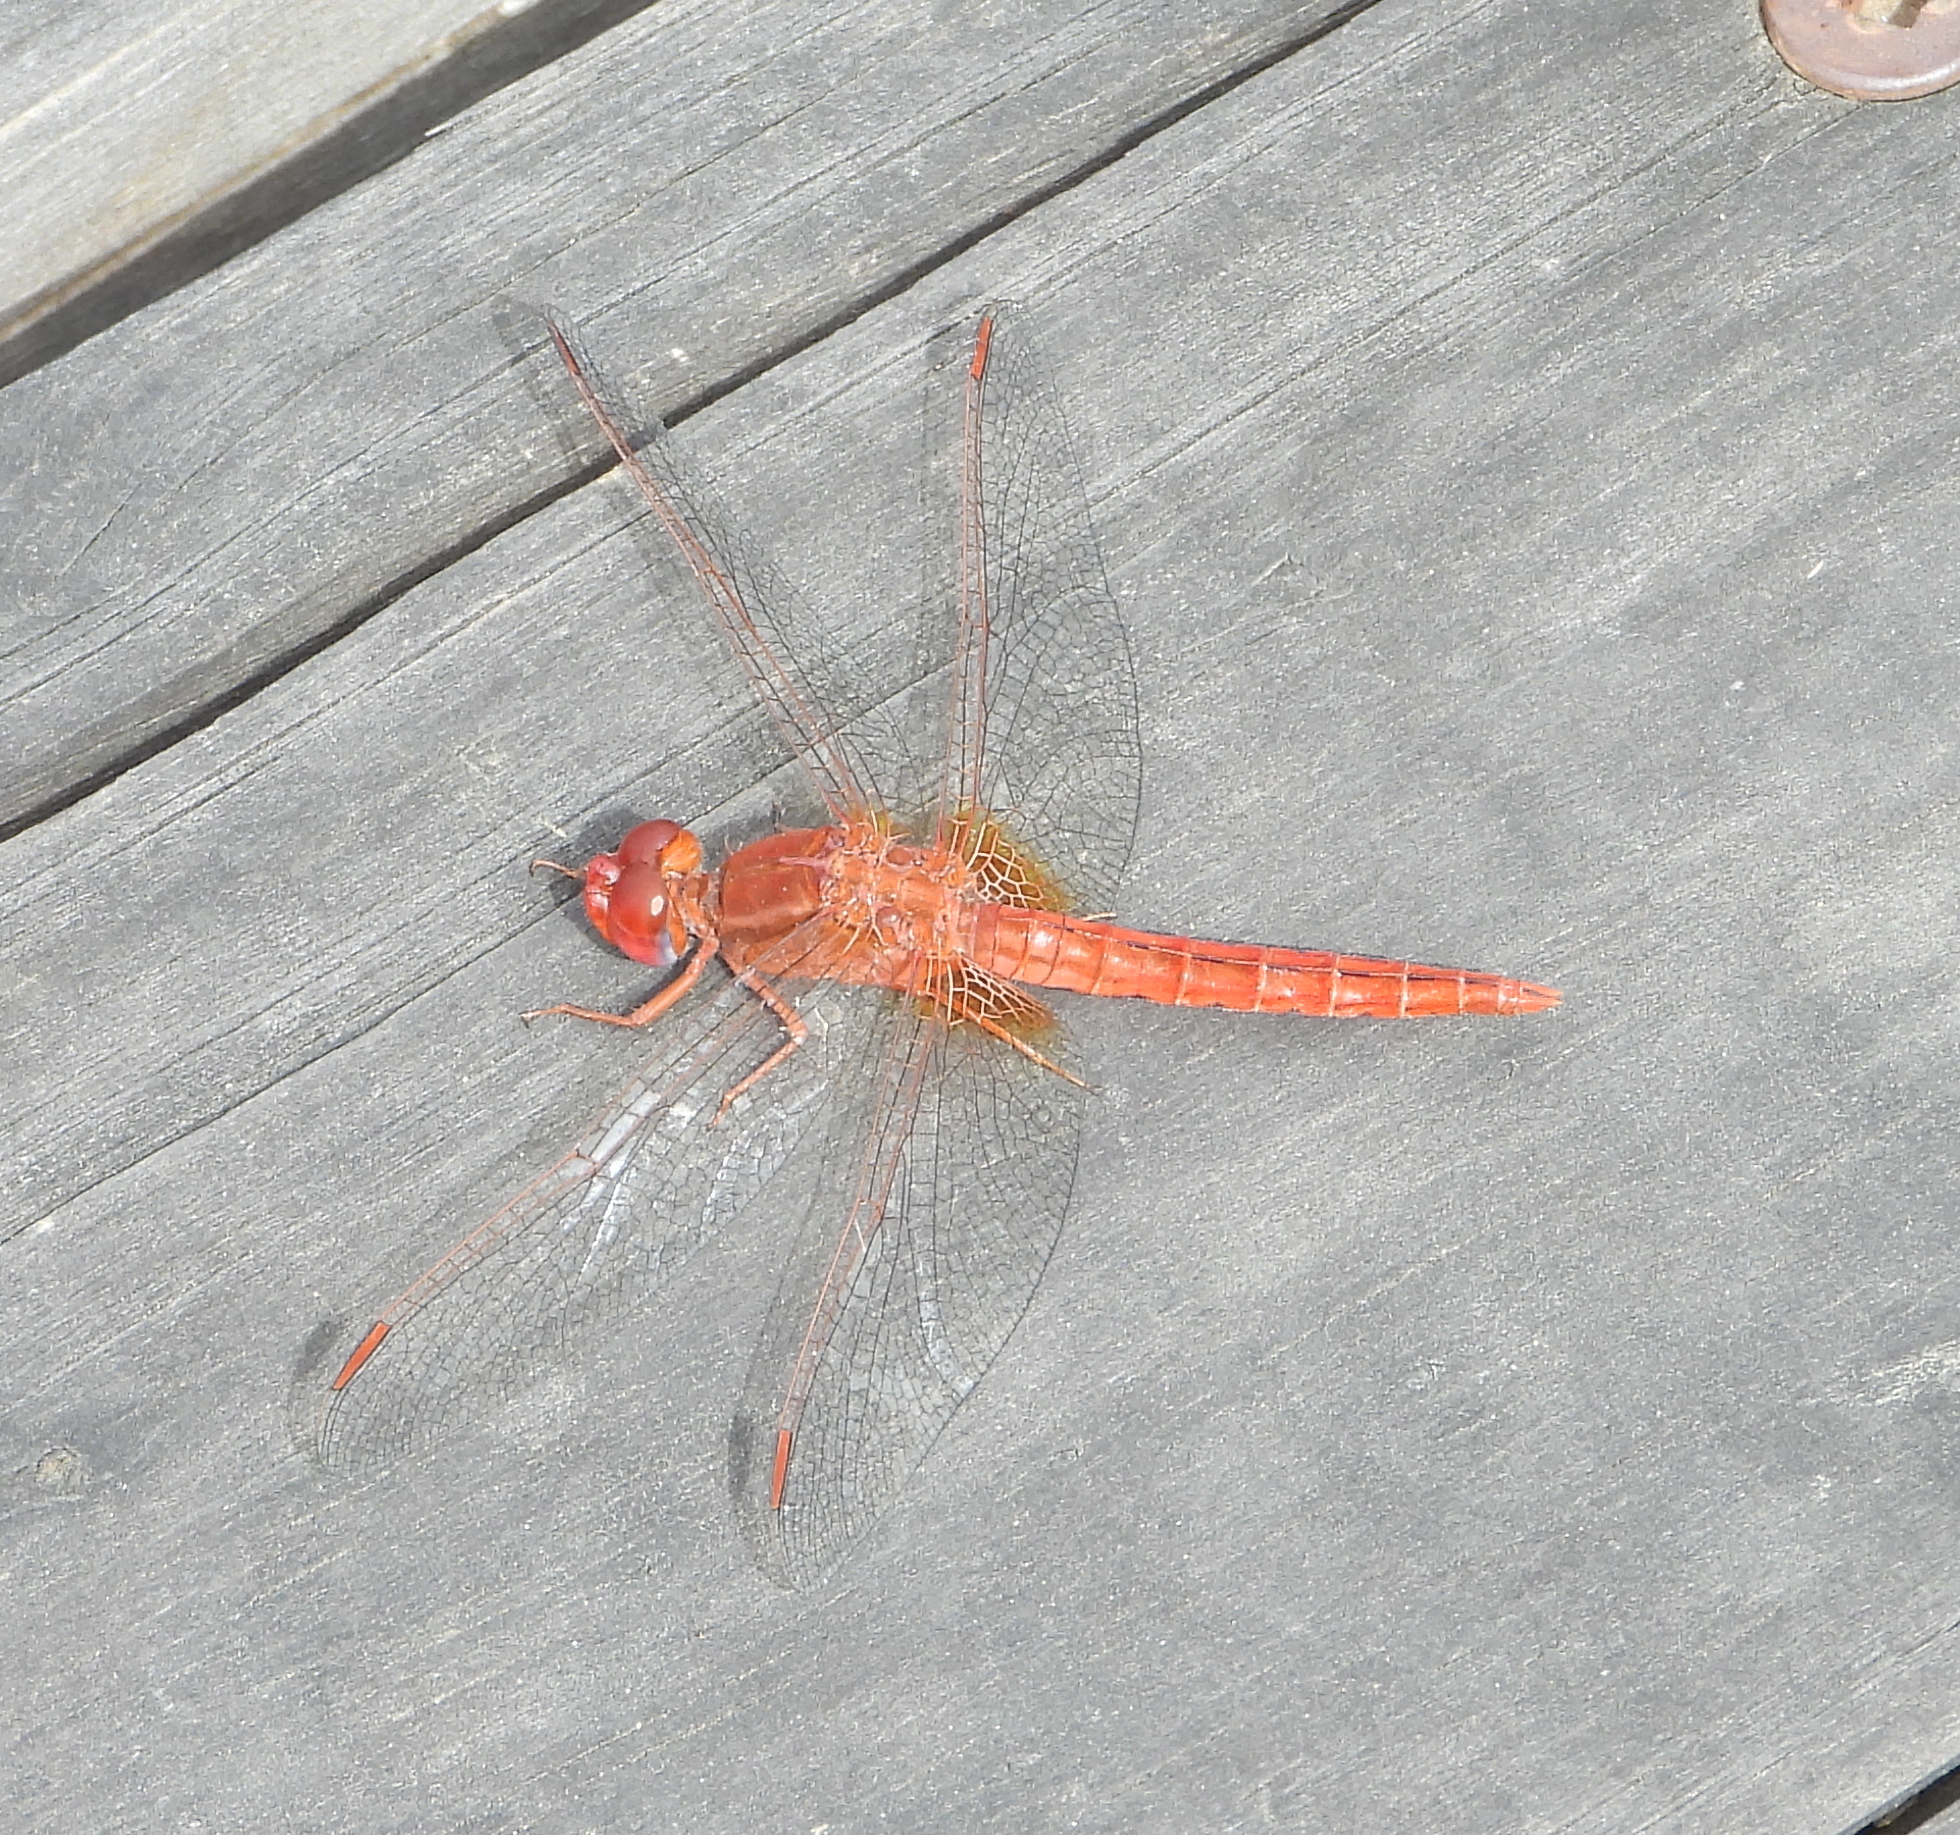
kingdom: Animalia
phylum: Arthropoda
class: Insecta
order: Odonata
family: Libellulidae
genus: Crocothemis
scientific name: Crocothemis sanguinolenta
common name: Little scarlet
